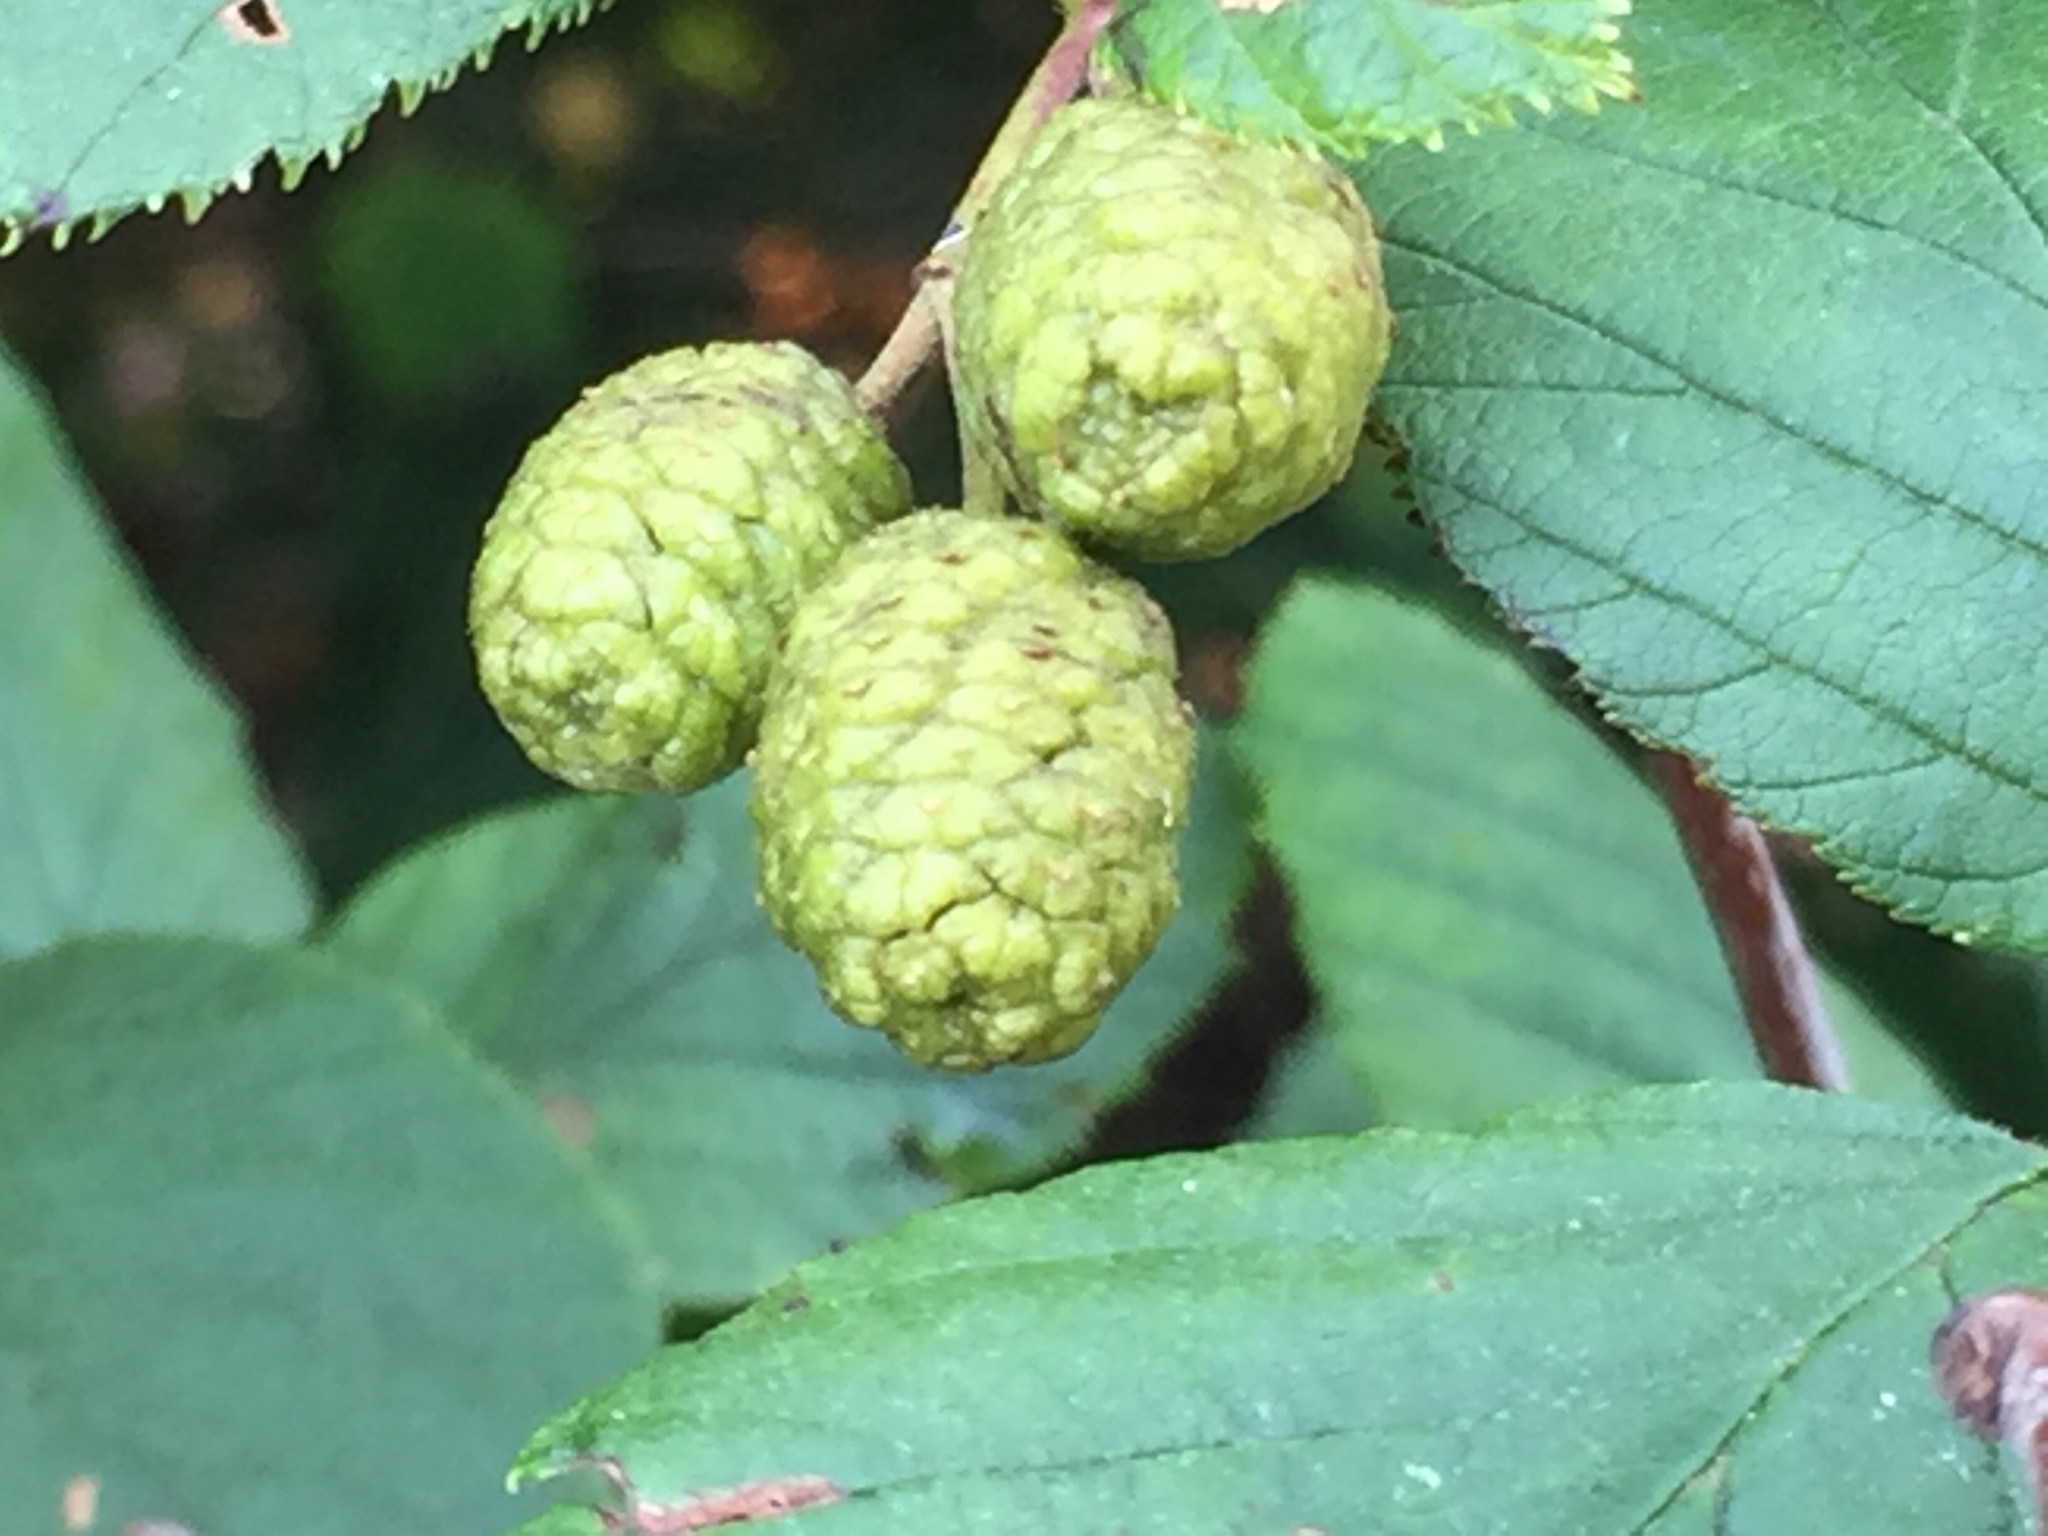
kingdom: Plantae
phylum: Tracheophyta
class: Magnoliopsida
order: Fagales
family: Betulaceae
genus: Alnus
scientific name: Alnus alnobetula
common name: Green alder
